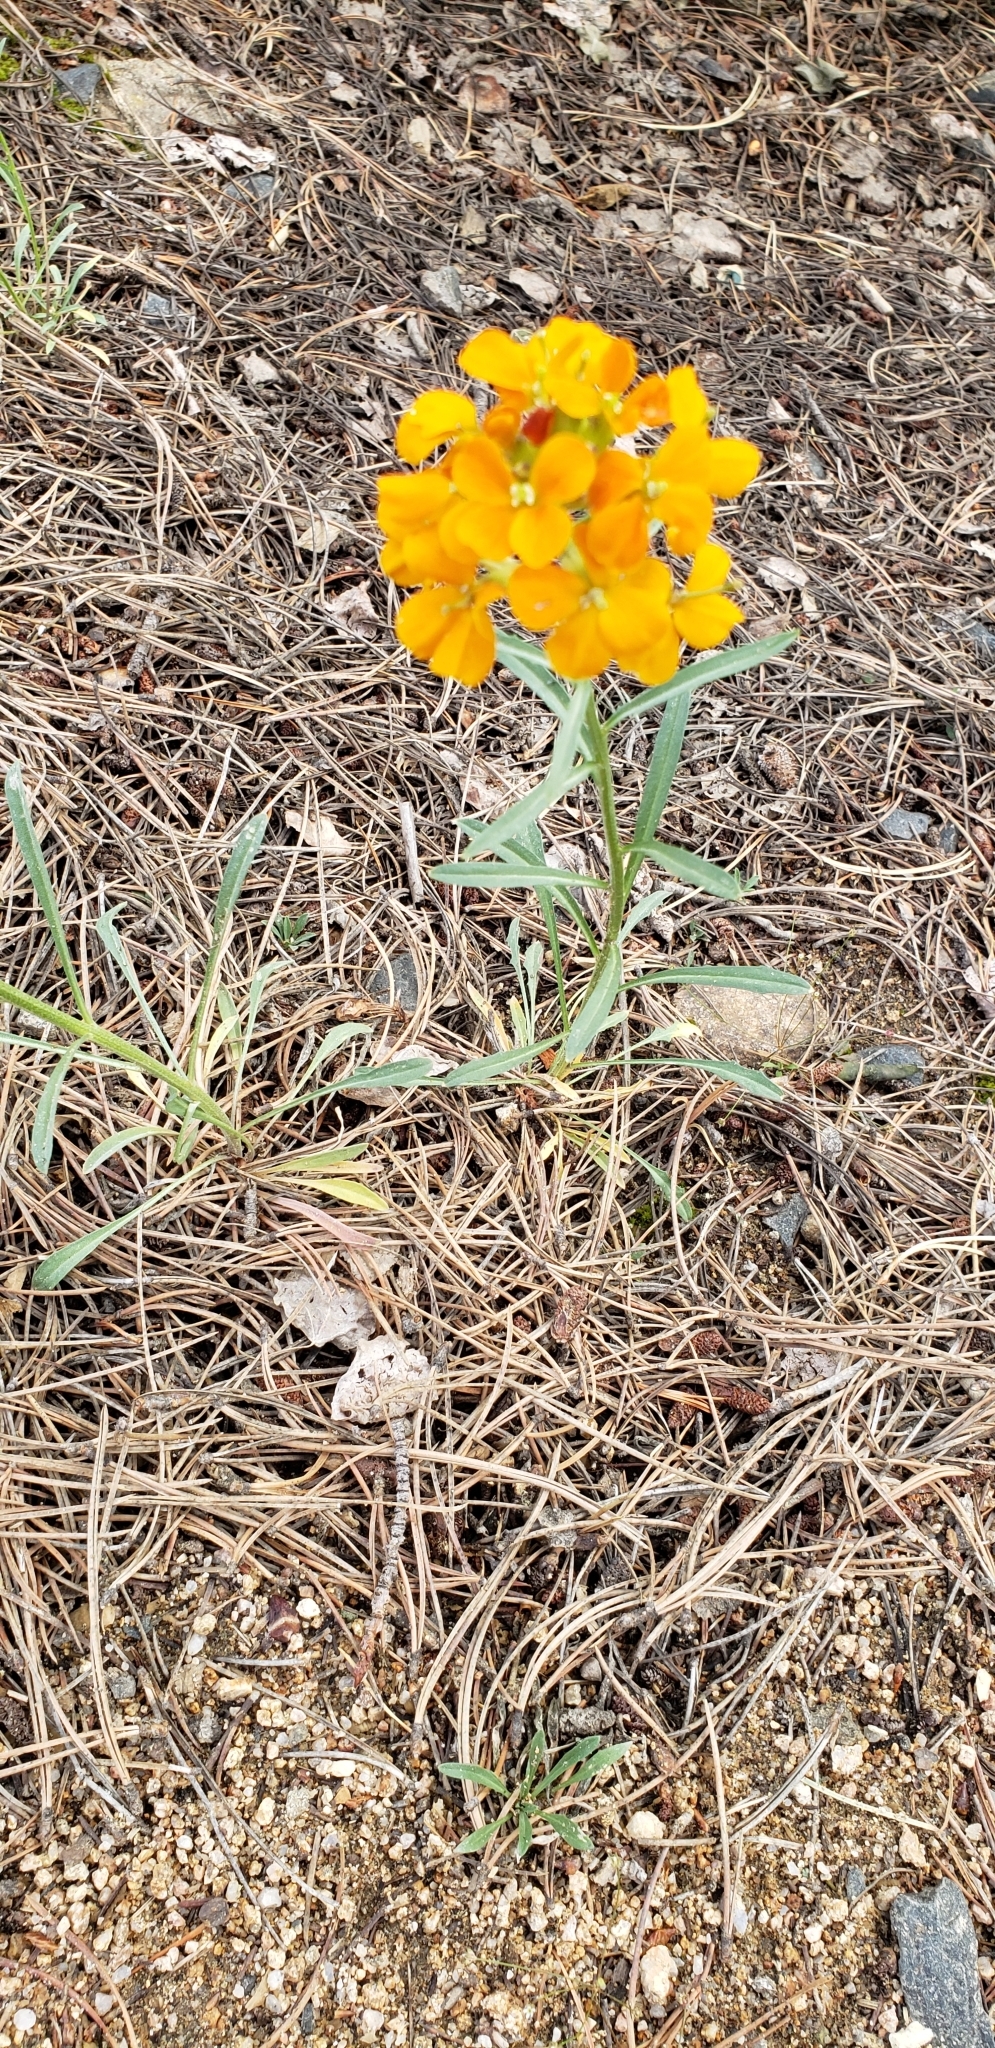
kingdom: Plantae
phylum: Tracheophyta
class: Magnoliopsida
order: Brassicales
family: Brassicaceae
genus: Erysimum
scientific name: Erysimum capitatum
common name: Western wallflower
